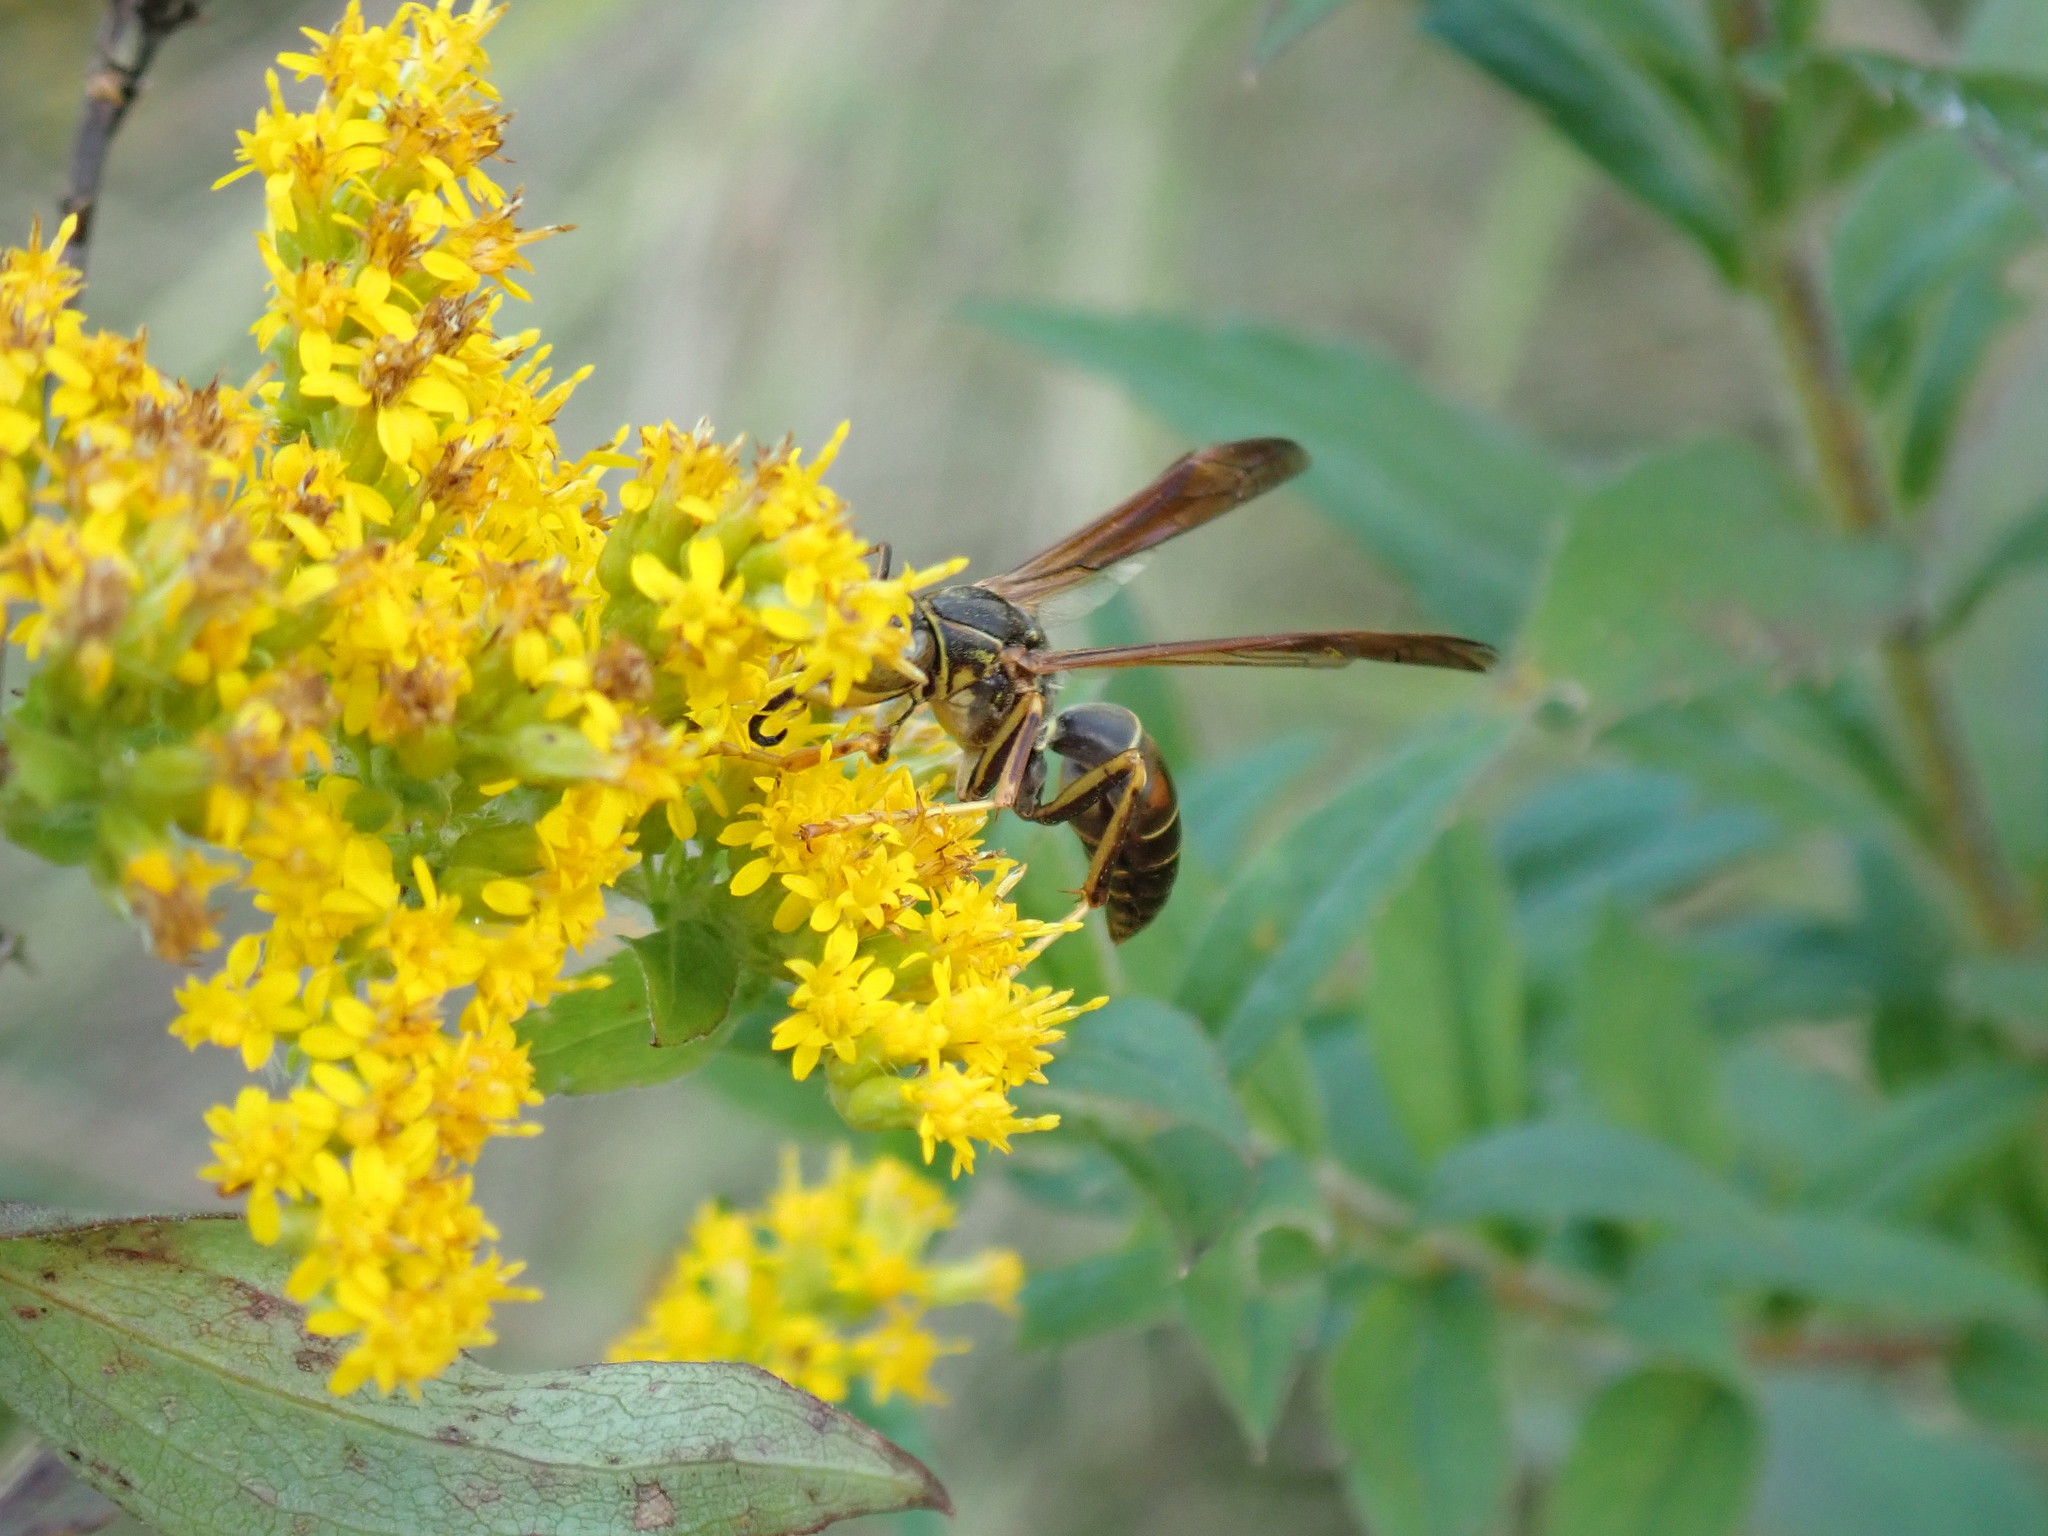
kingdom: Animalia
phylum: Arthropoda
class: Insecta
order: Hymenoptera
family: Eumenidae
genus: Polistes
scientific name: Polistes fuscatus
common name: Dark paper wasp
